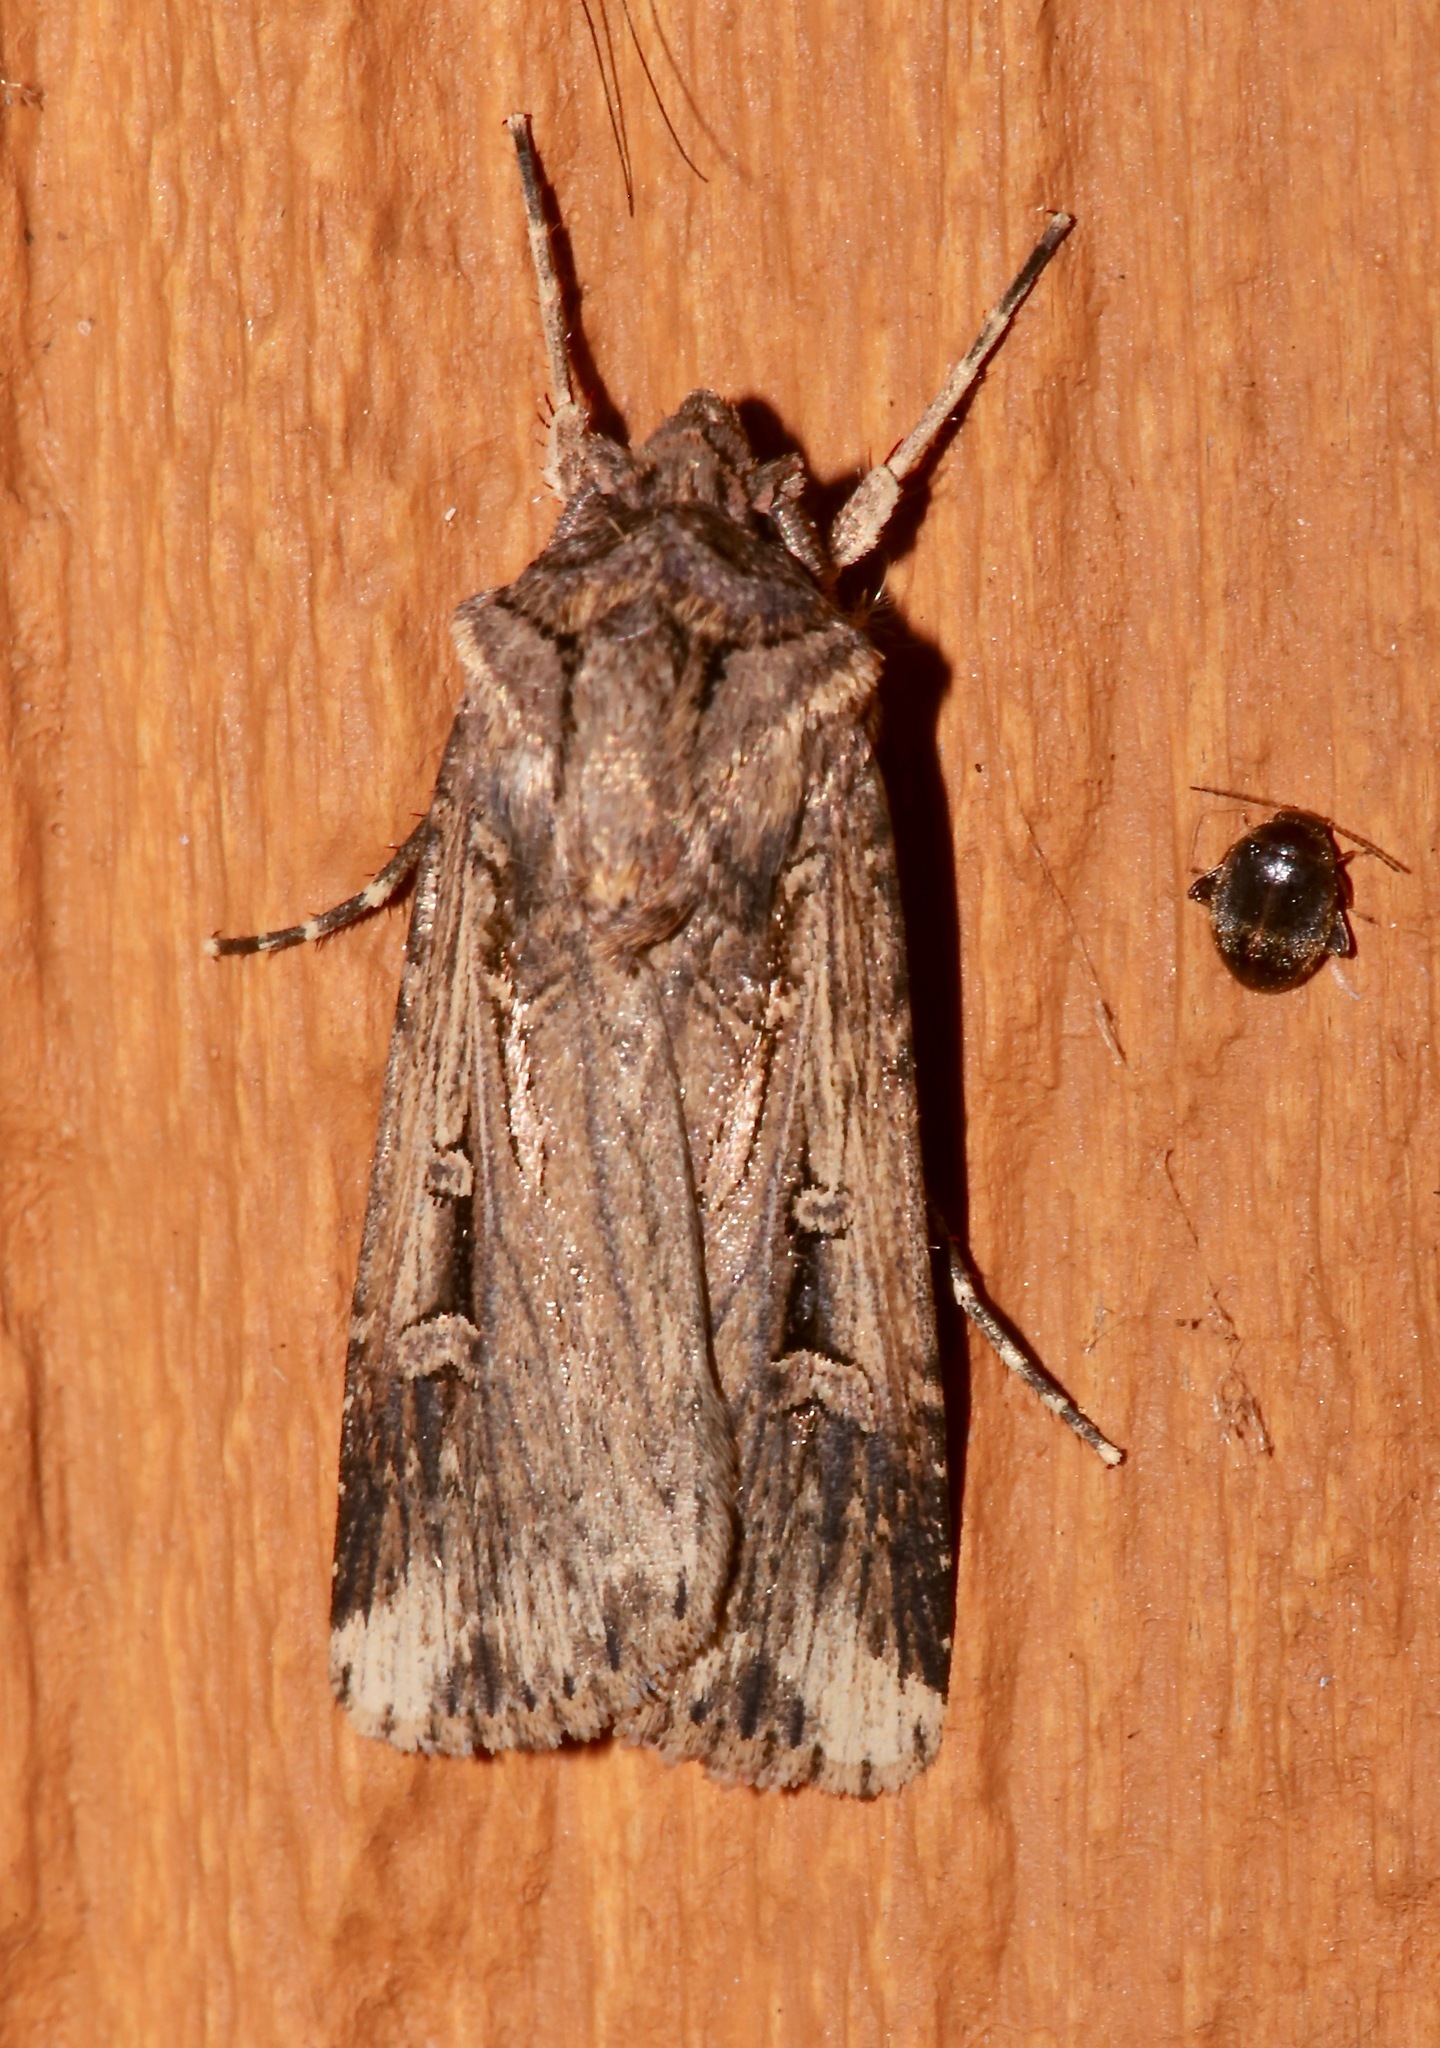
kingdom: Animalia
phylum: Arthropoda
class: Insecta
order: Lepidoptera
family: Noctuidae
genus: Feltia
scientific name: Feltia subterranea
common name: Granulate cutworm
